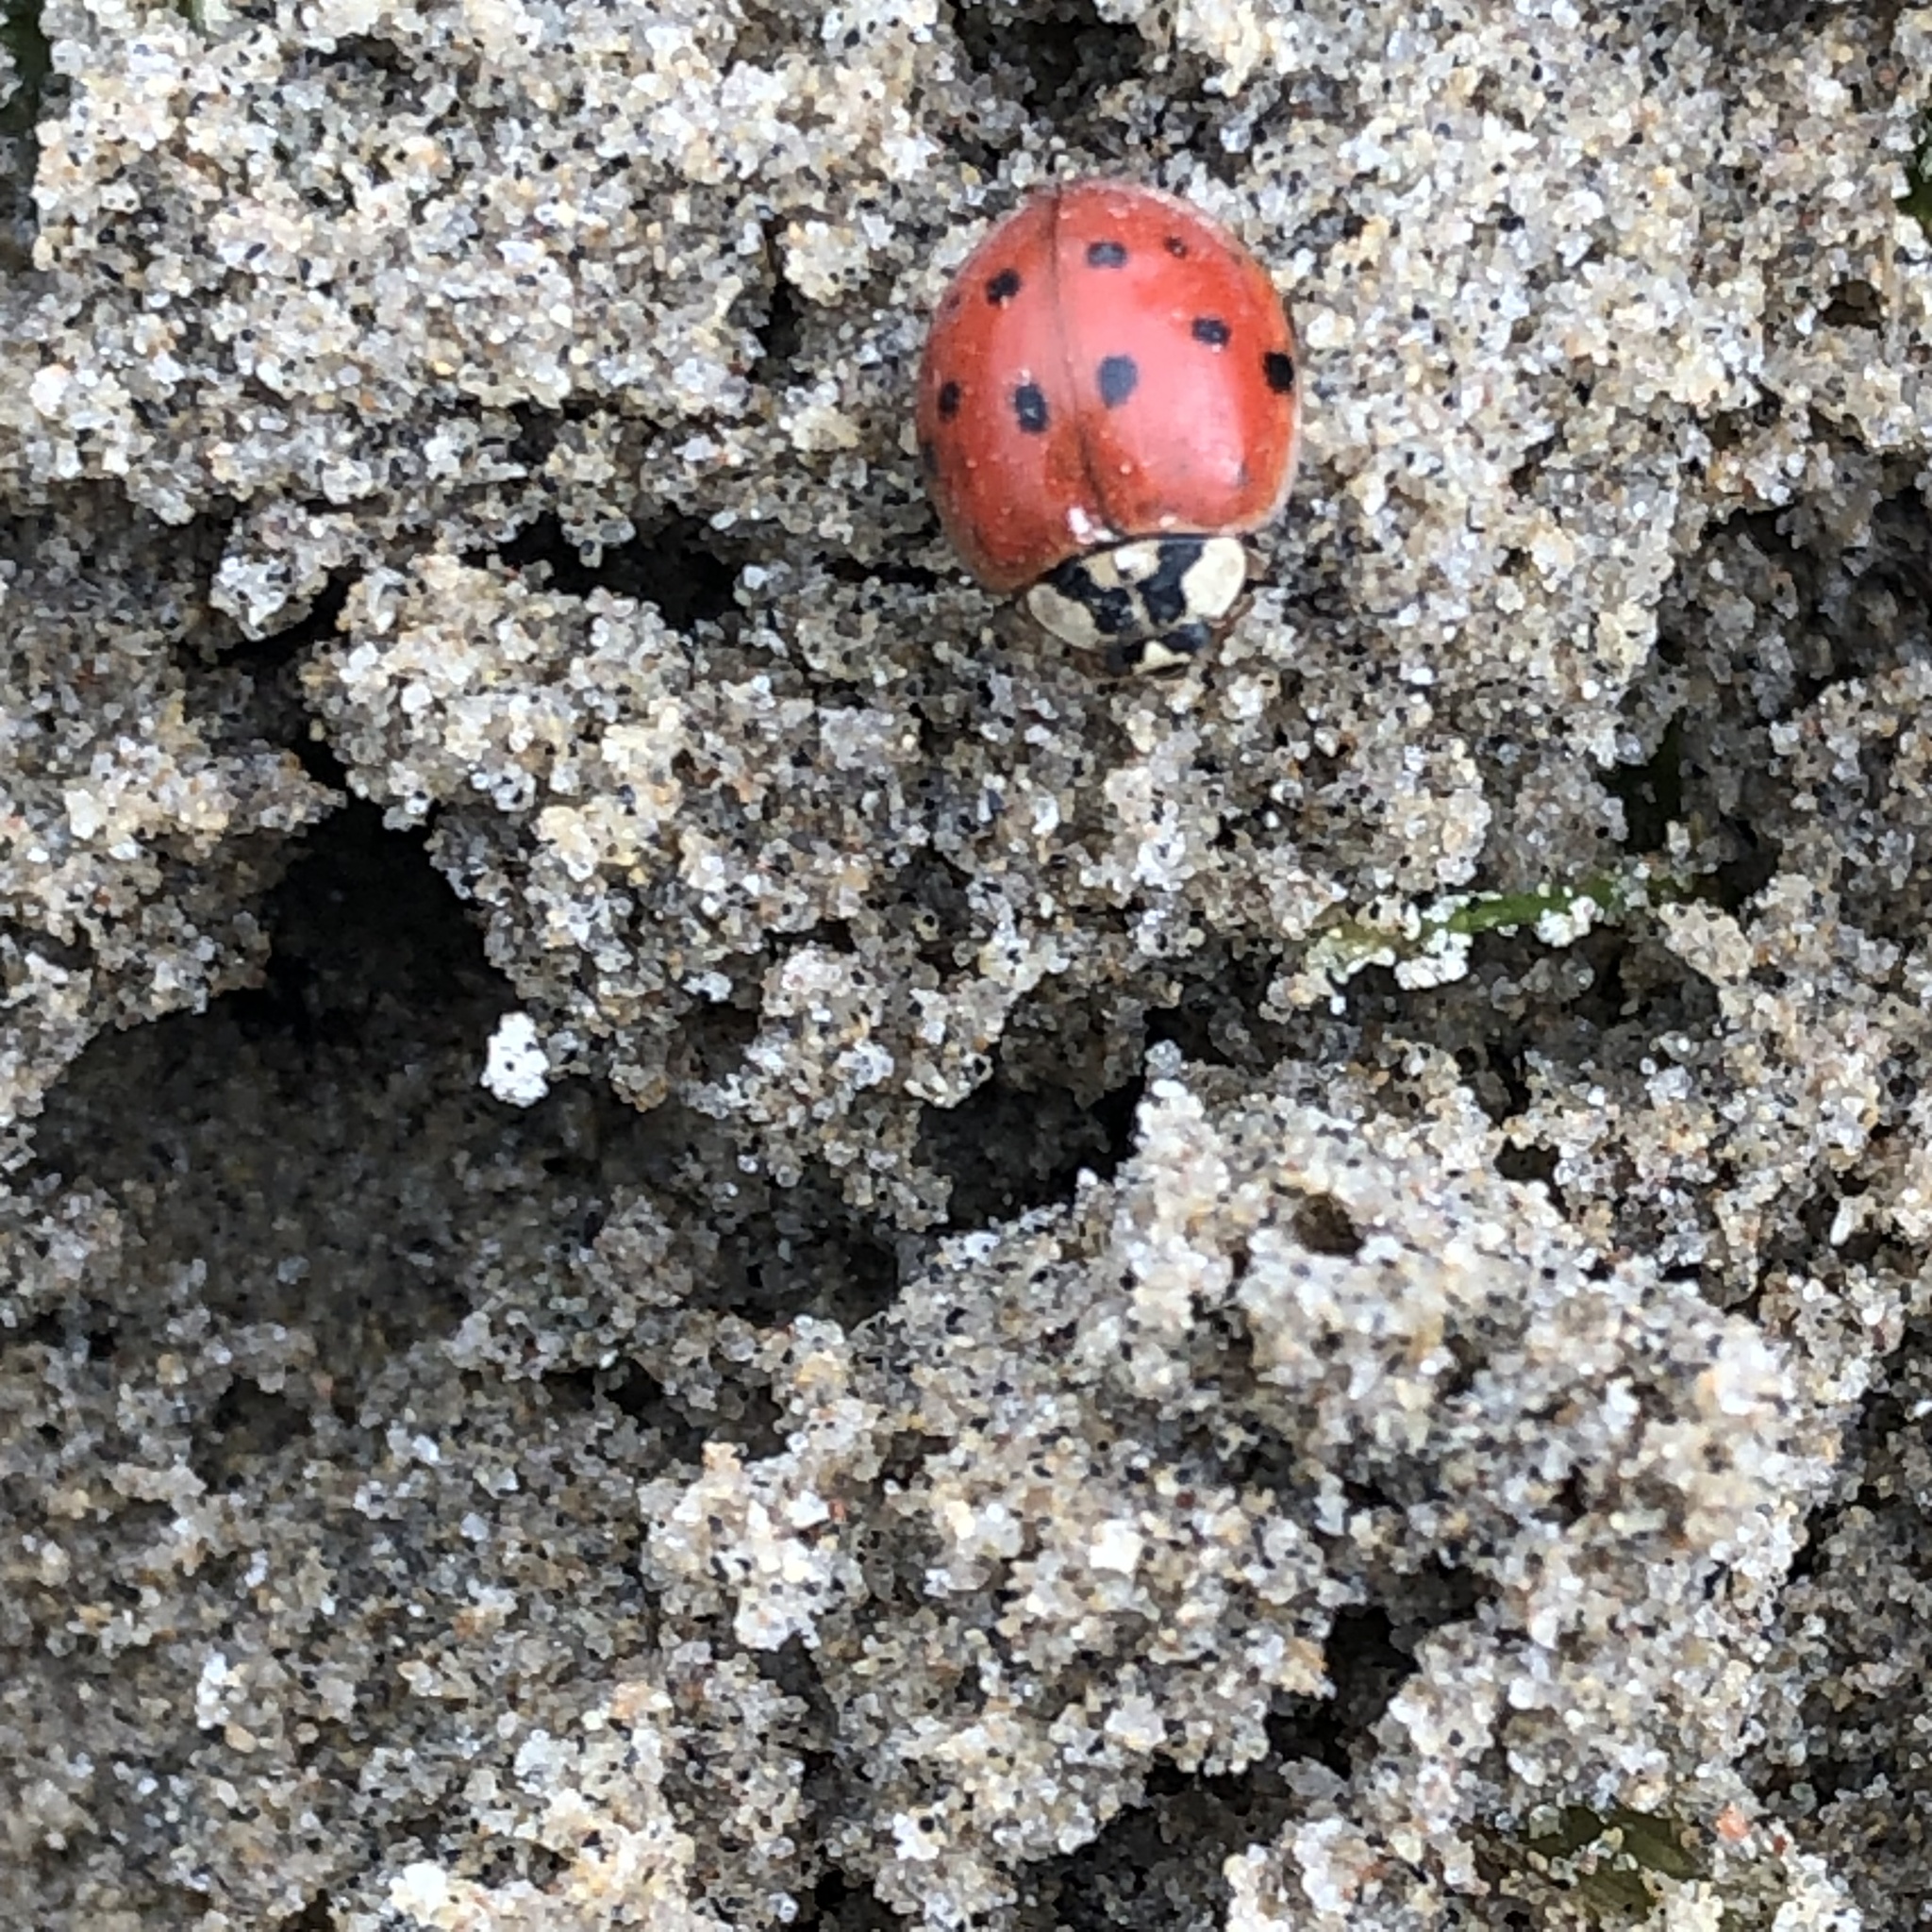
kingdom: Animalia
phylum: Arthropoda
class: Insecta
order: Coleoptera
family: Coccinellidae
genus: Harmonia
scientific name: Harmonia axyridis
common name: Harlequin ladybird
